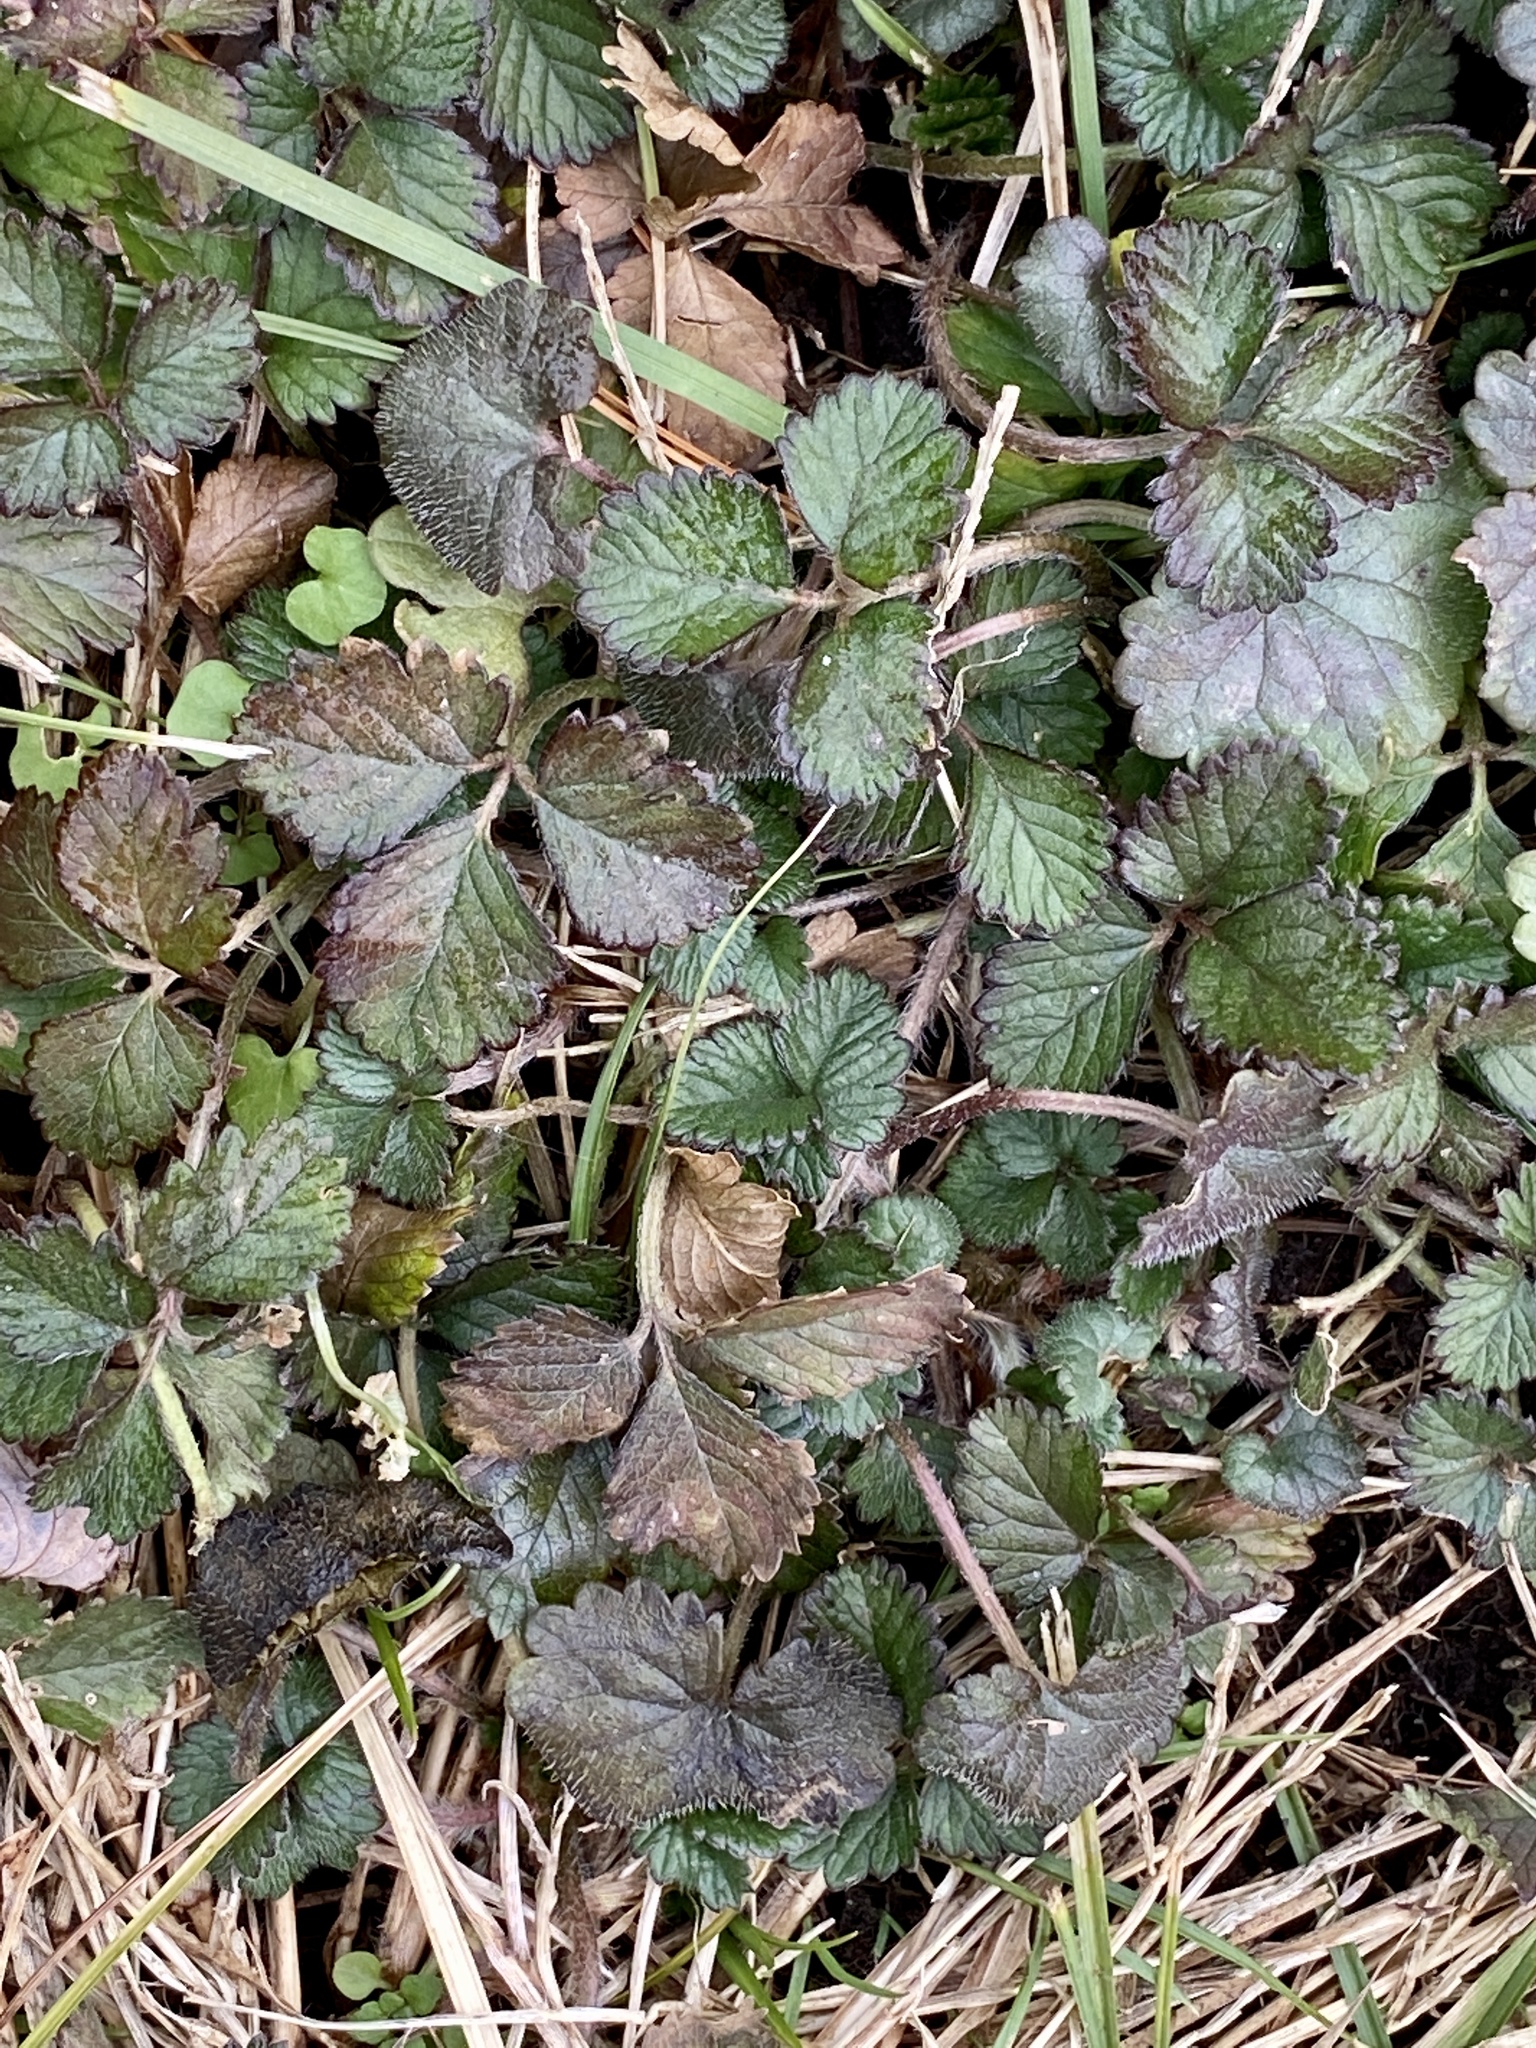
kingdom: Plantae
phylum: Tracheophyta
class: Magnoliopsida
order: Rosales
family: Rosaceae
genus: Potentilla
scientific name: Potentilla indica
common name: Yellow-flowered strawberry
